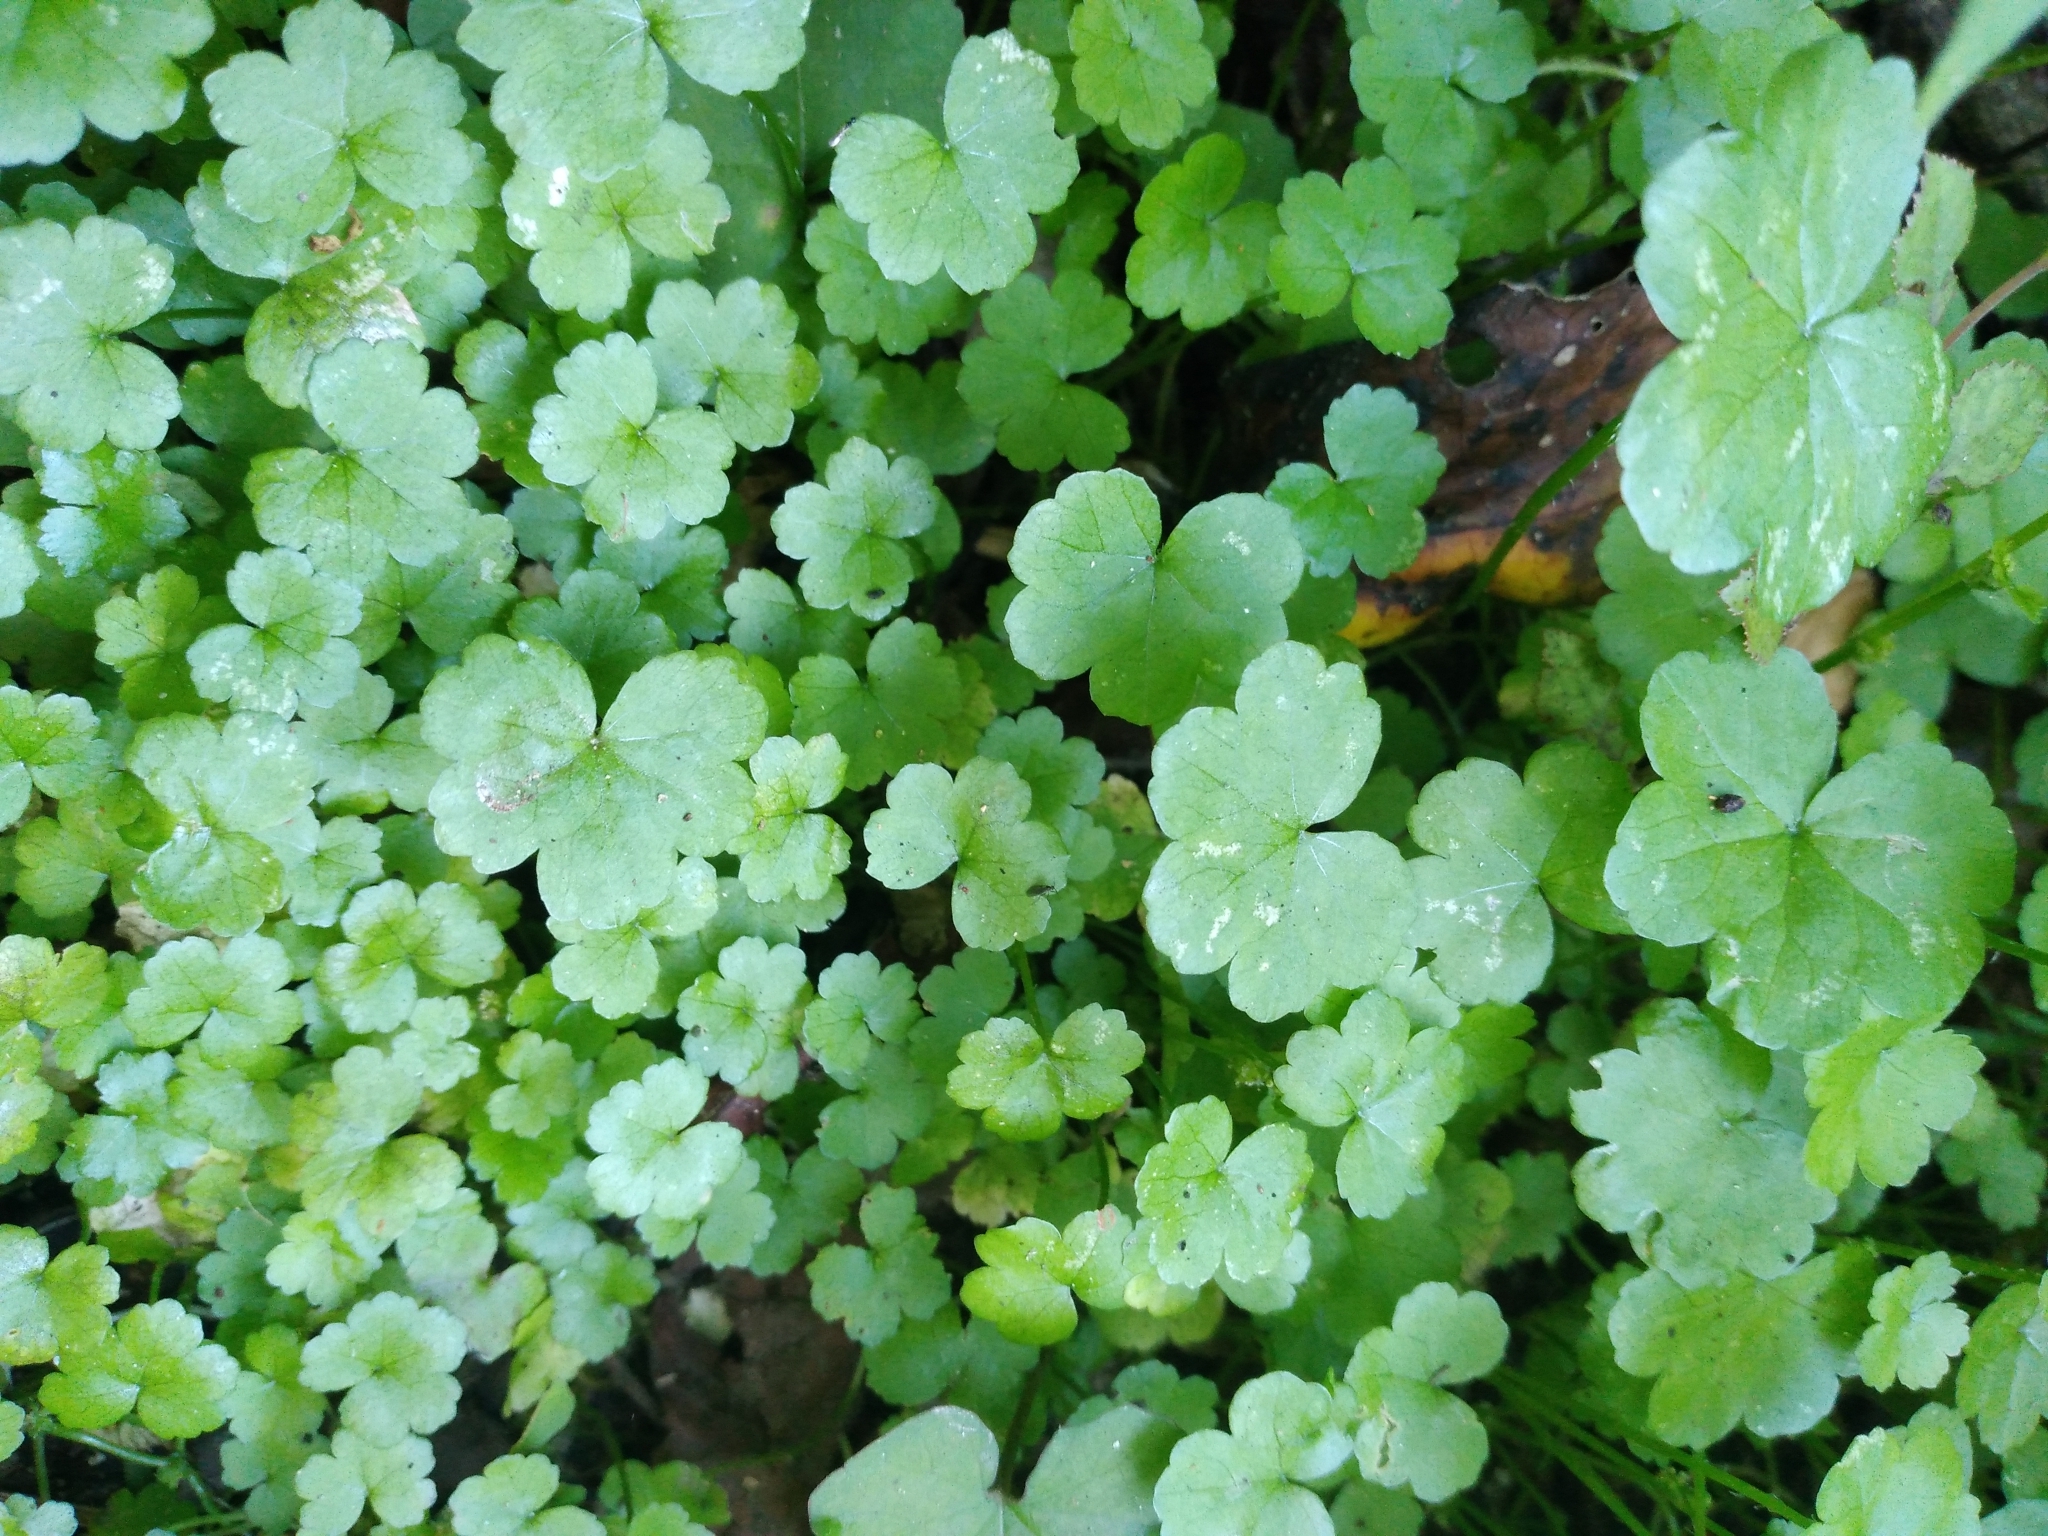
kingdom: Plantae
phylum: Tracheophyta
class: Magnoliopsida
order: Apiales
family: Araliaceae
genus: Hydrocotyle
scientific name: Hydrocotyle heteromeria
